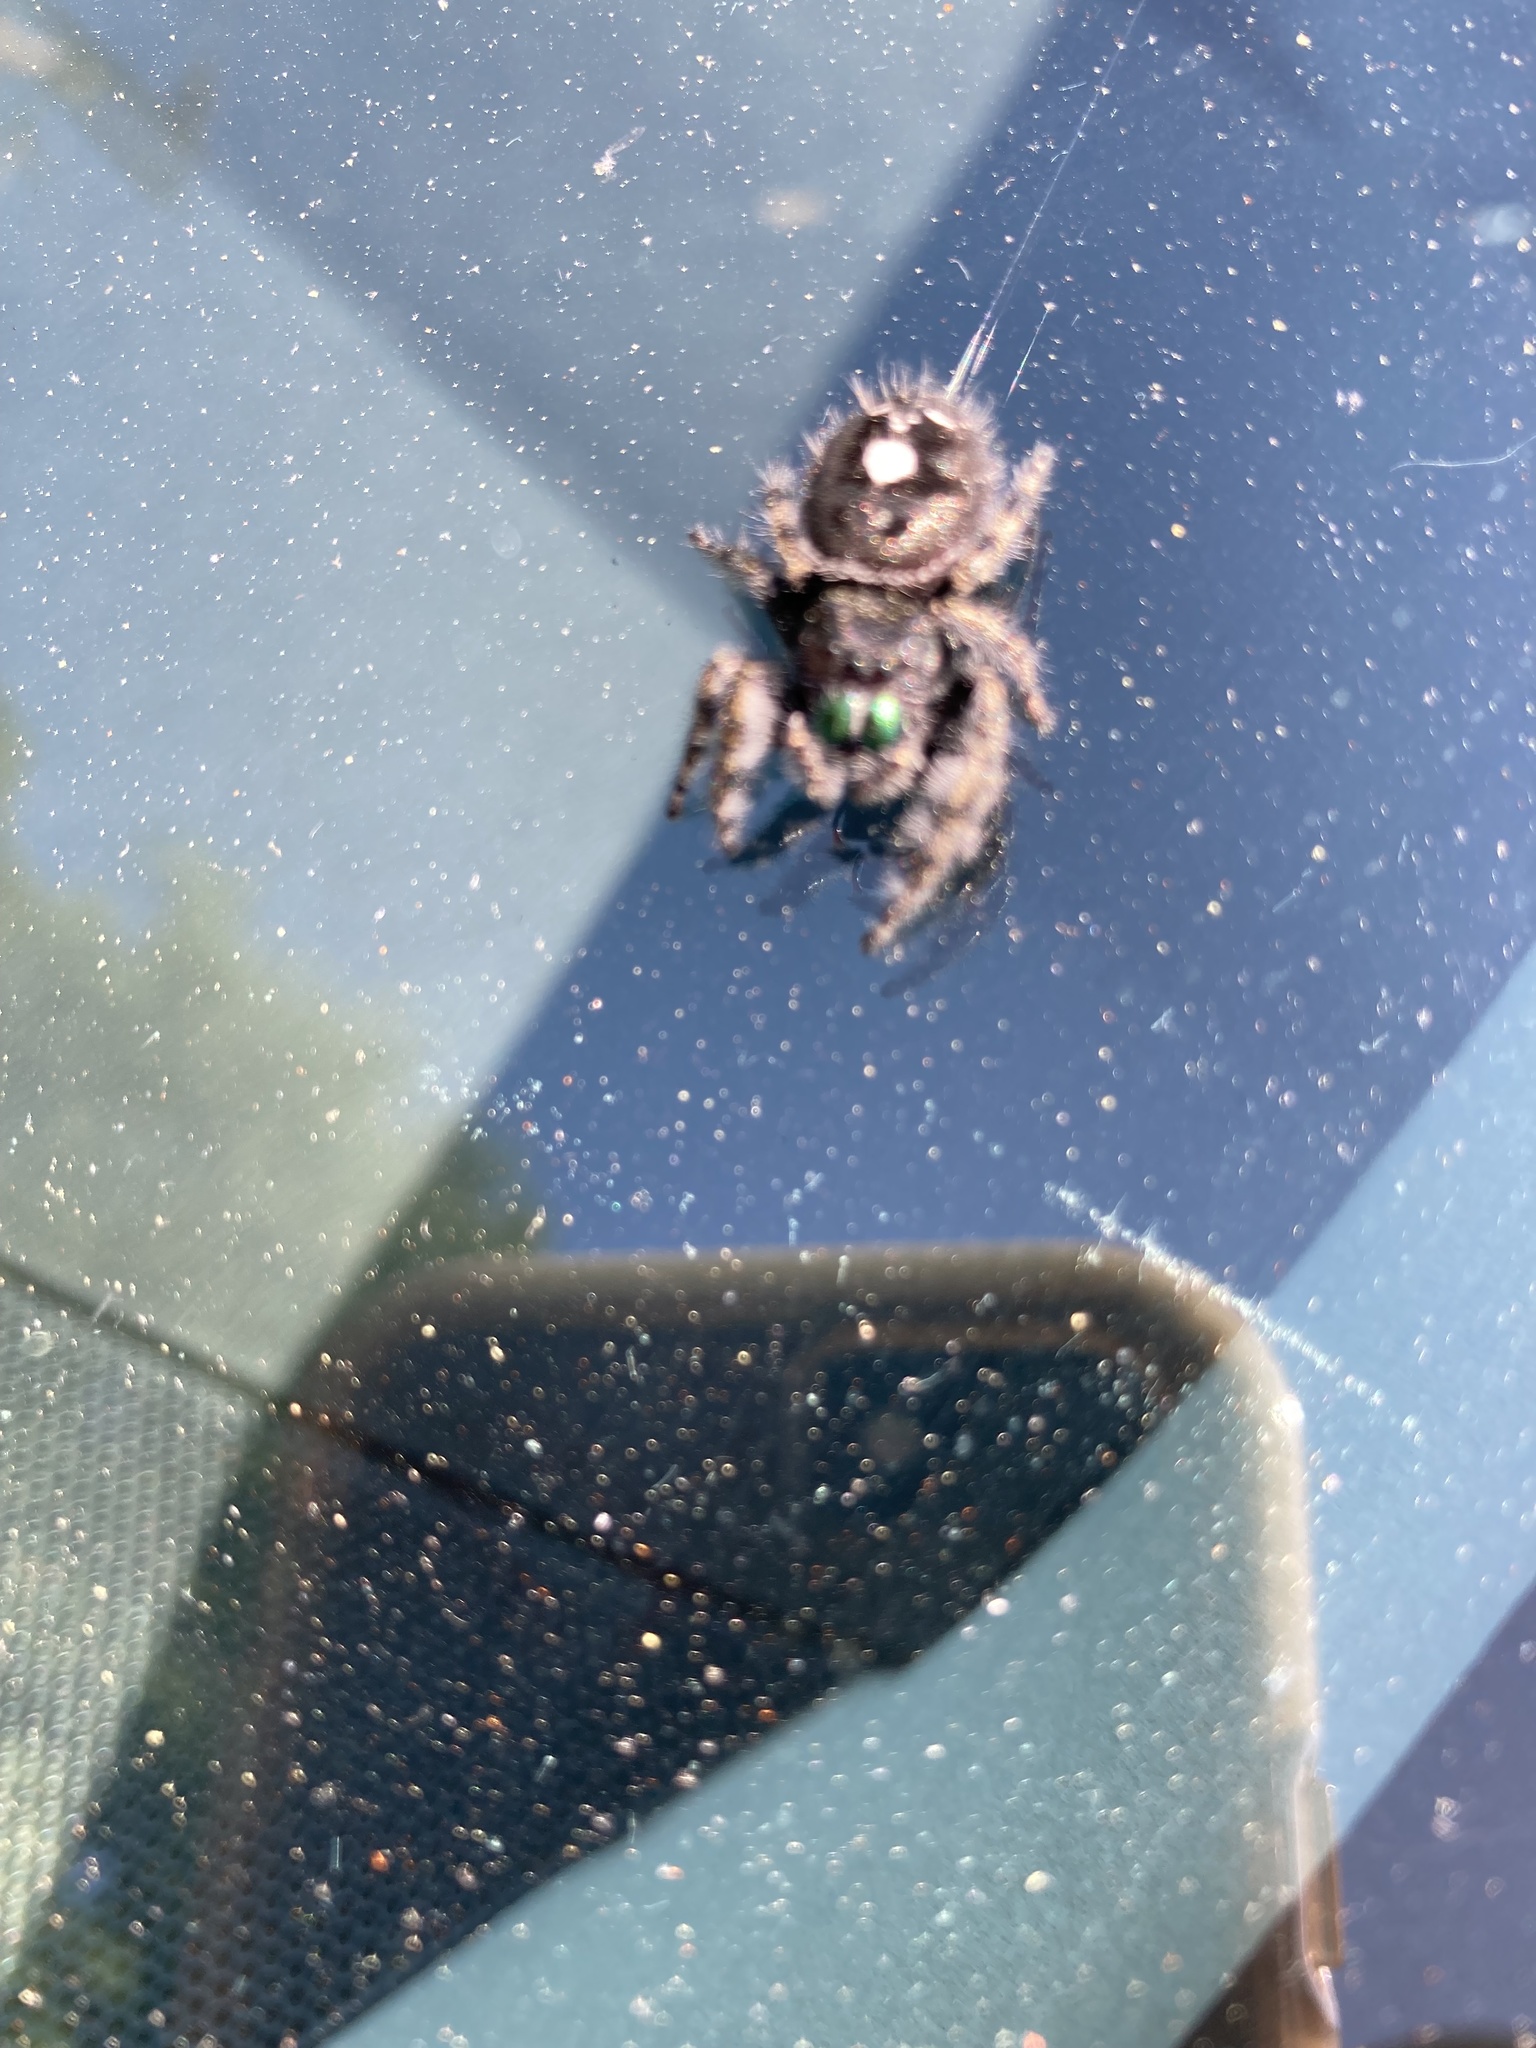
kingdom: Animalia
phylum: Arthropoda
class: Arachnida
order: Araneae
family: Salticidae
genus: Phidippus
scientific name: Phidippus audax
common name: Bold jumper
